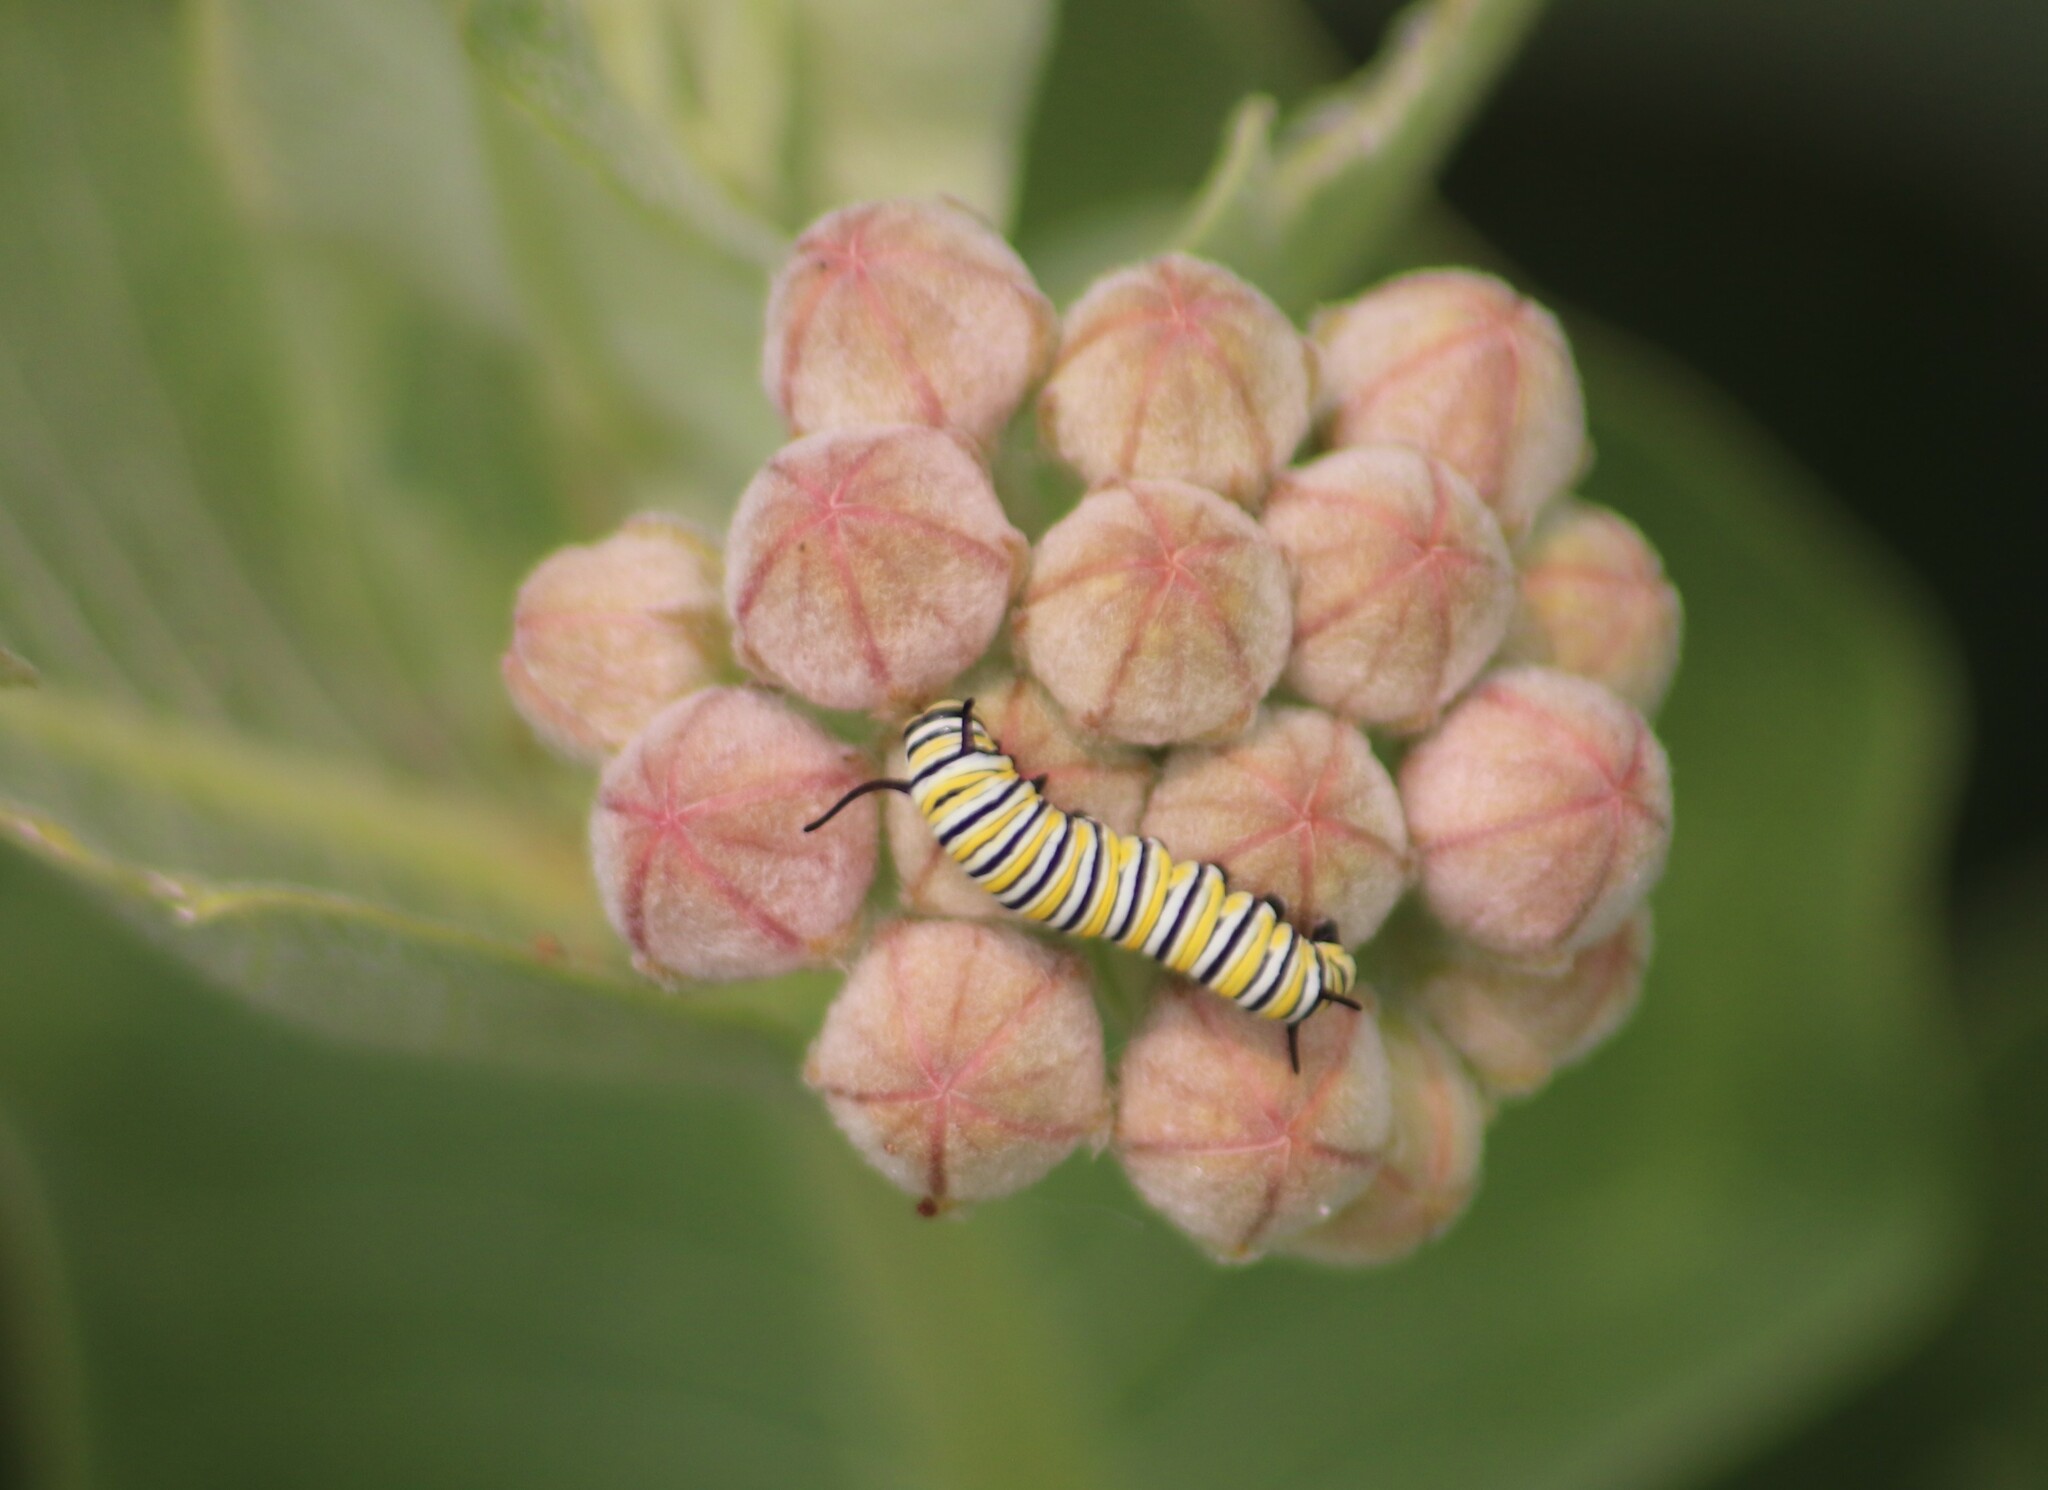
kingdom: Animalia
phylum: Arthropoda
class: Insecta
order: Lepidoptera
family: Nymphalidae
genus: Danaus
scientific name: Danaus plexippus
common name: Monarch
